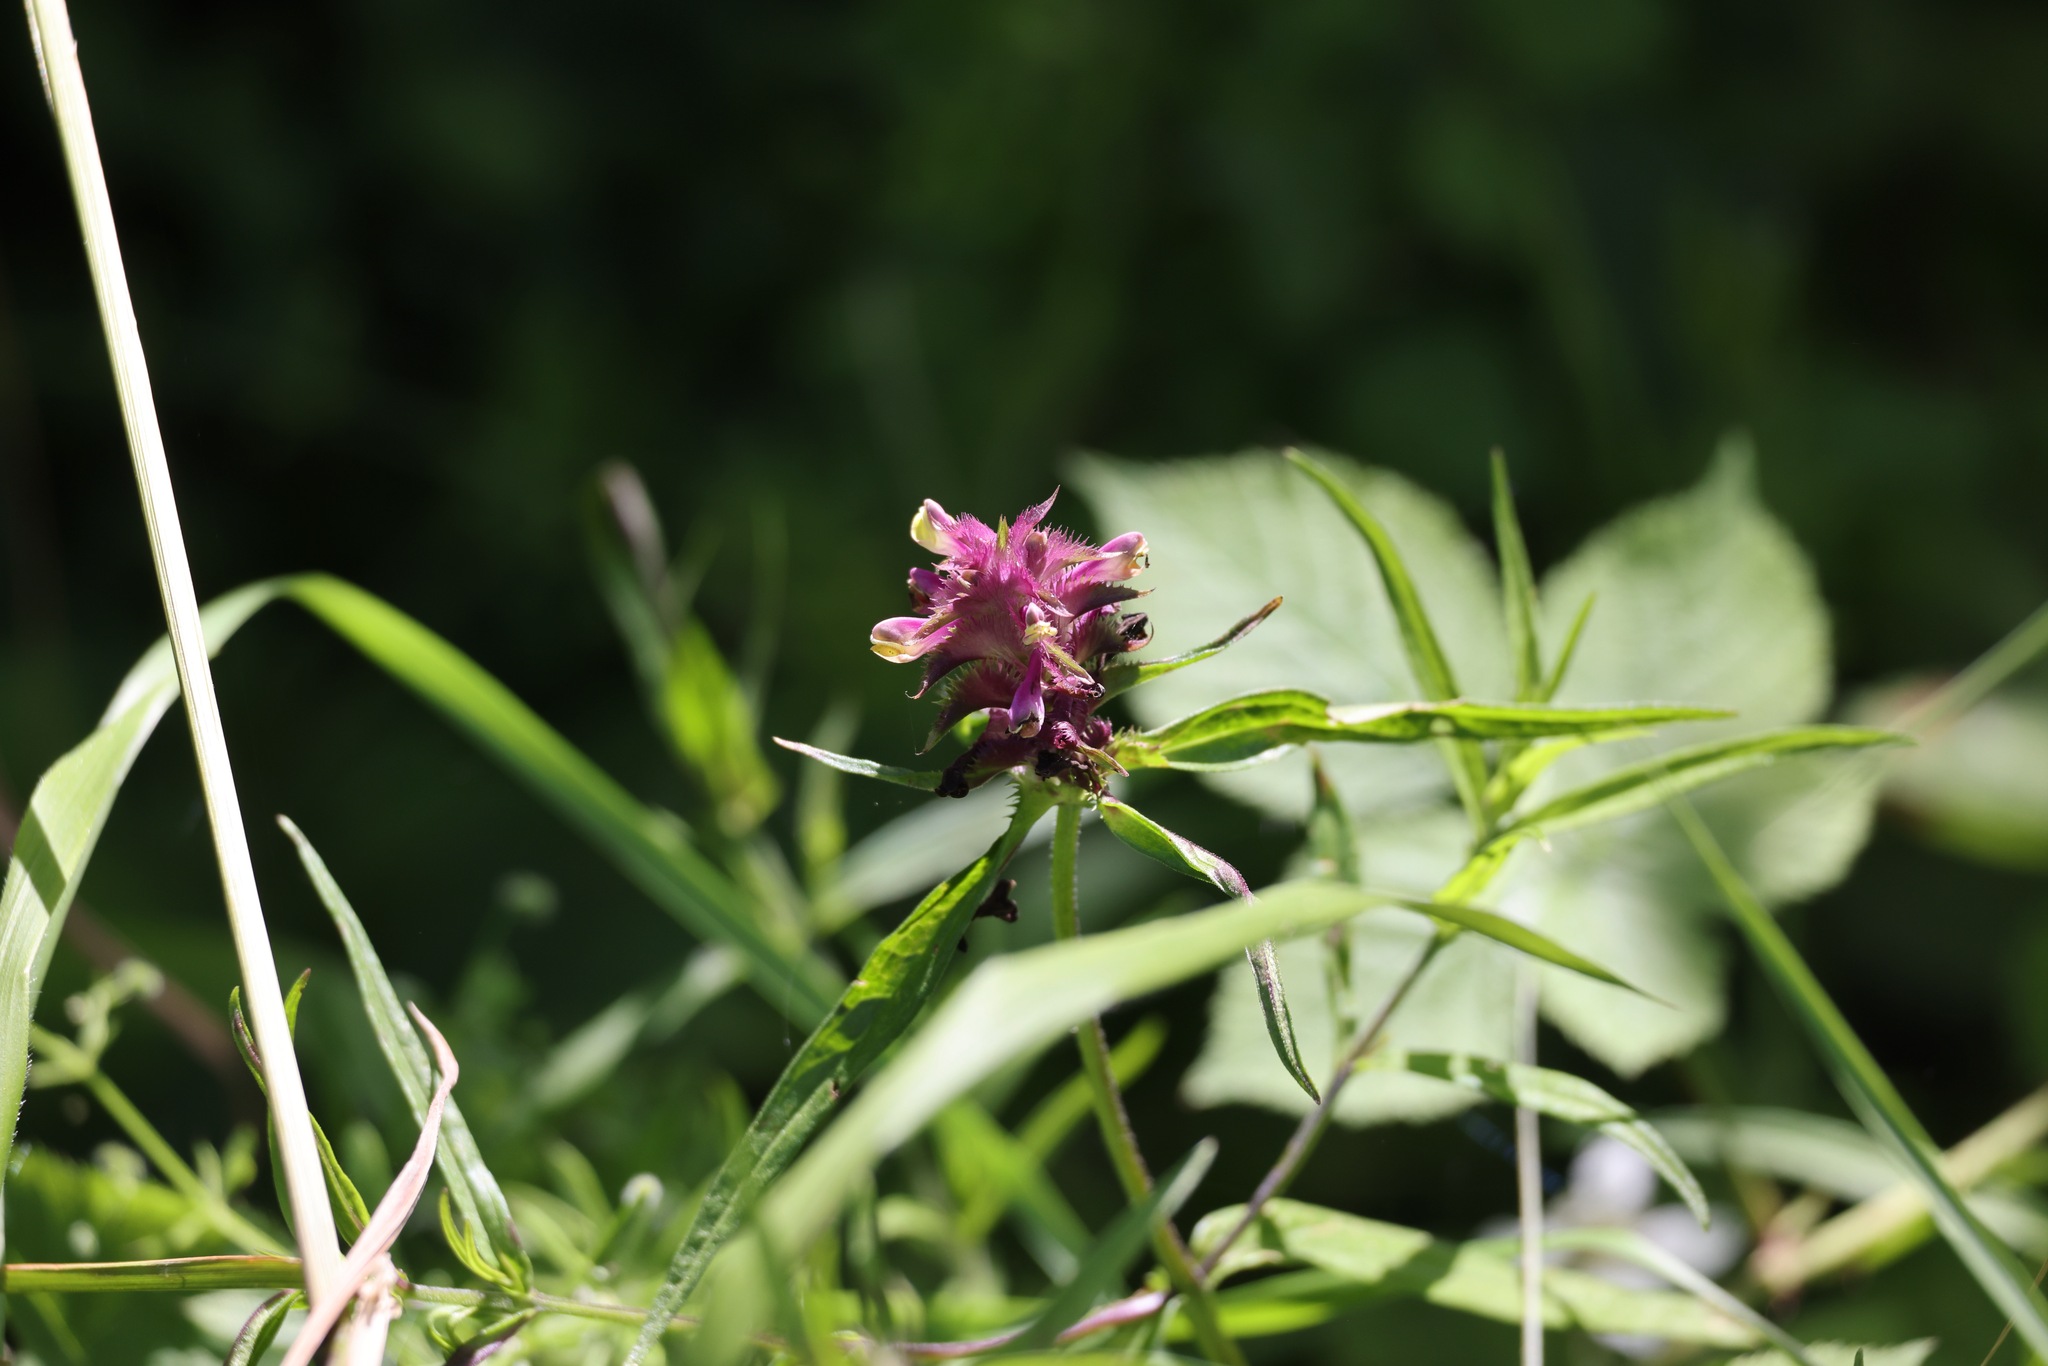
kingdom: Plantae
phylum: Tracheophyta
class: Magnoliopsida
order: Lamiales
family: Orobanchaceae
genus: Melampyrum
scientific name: Melampyrum cristatum
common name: Crested cow-wheat
